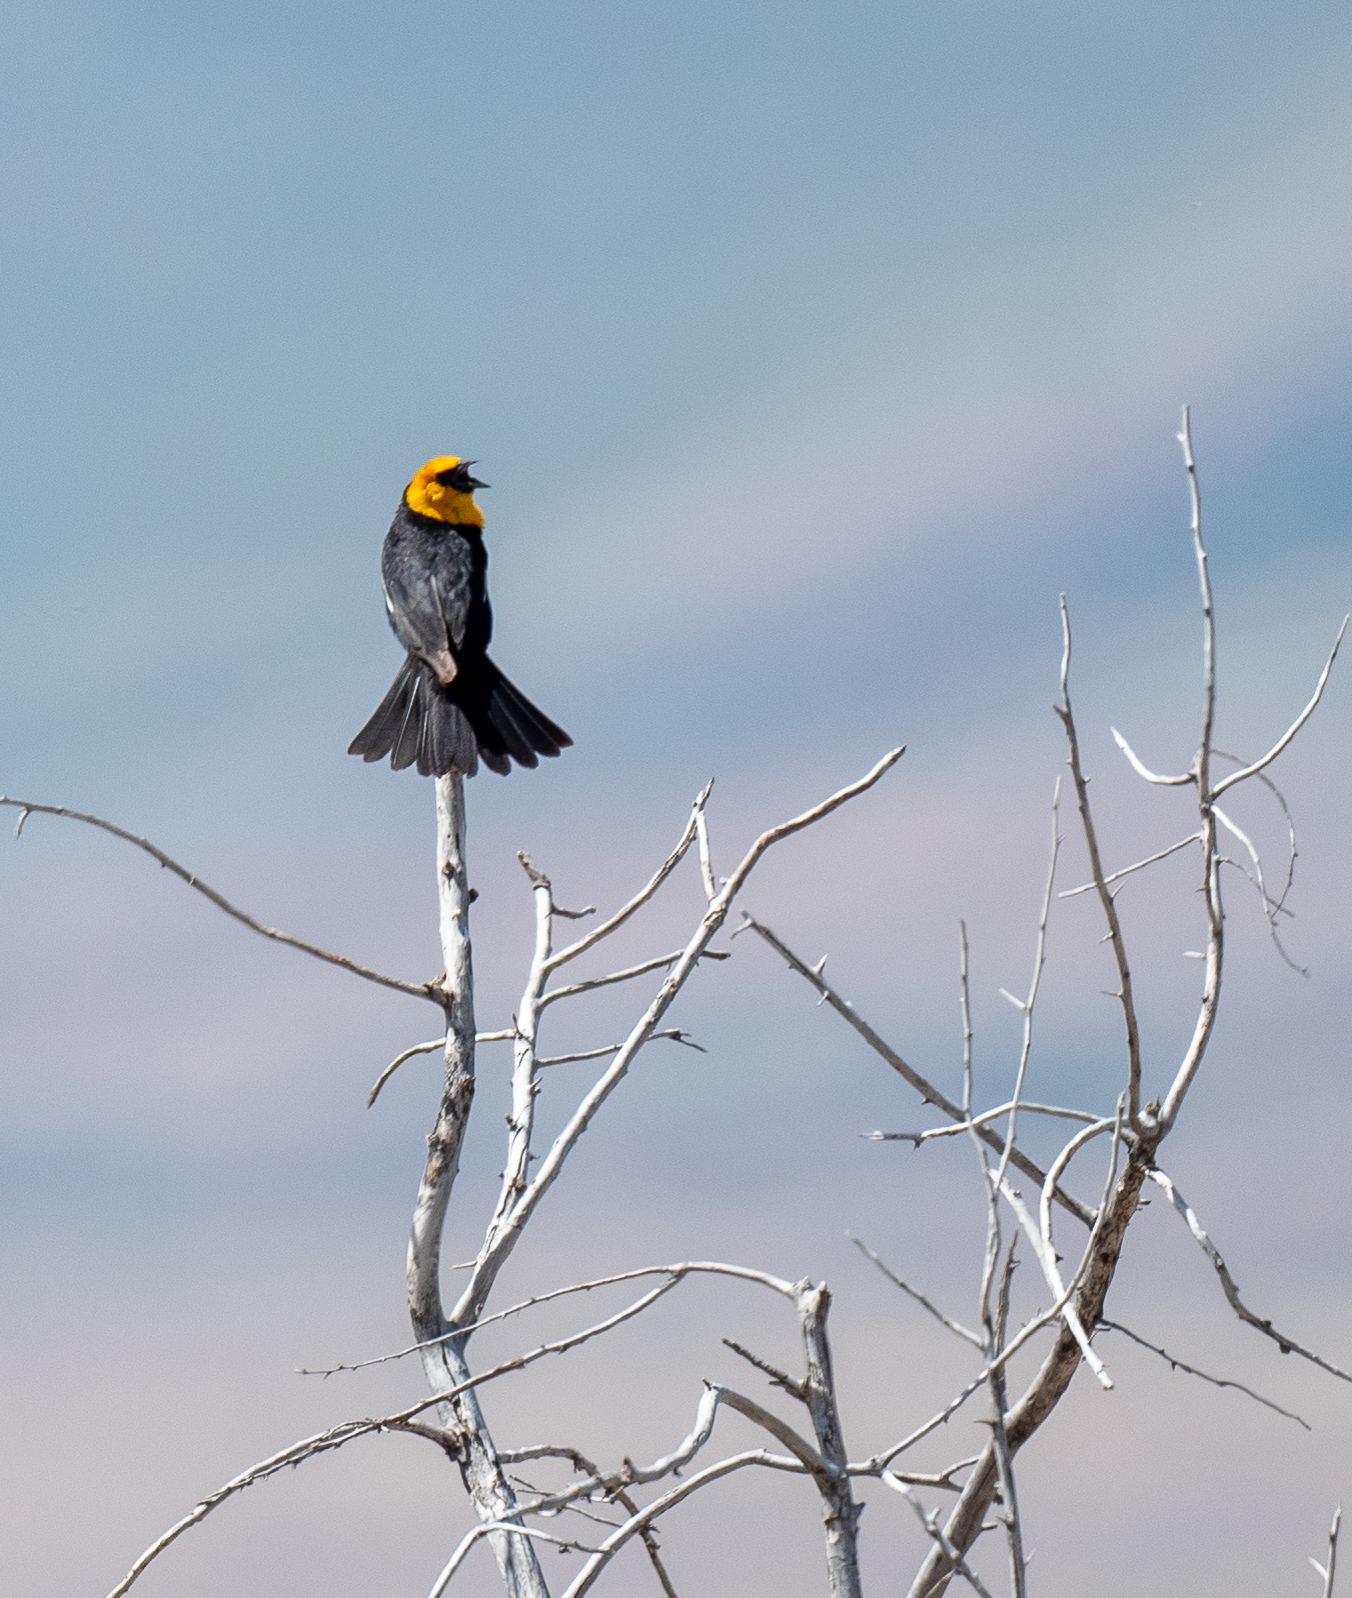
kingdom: Animalia
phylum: Chordata
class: Aves
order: Passeriformes
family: Icteridae
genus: Xanthocephalus
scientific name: Xanthocephalus xanthocephalus
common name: Yellow-headed blackbird
